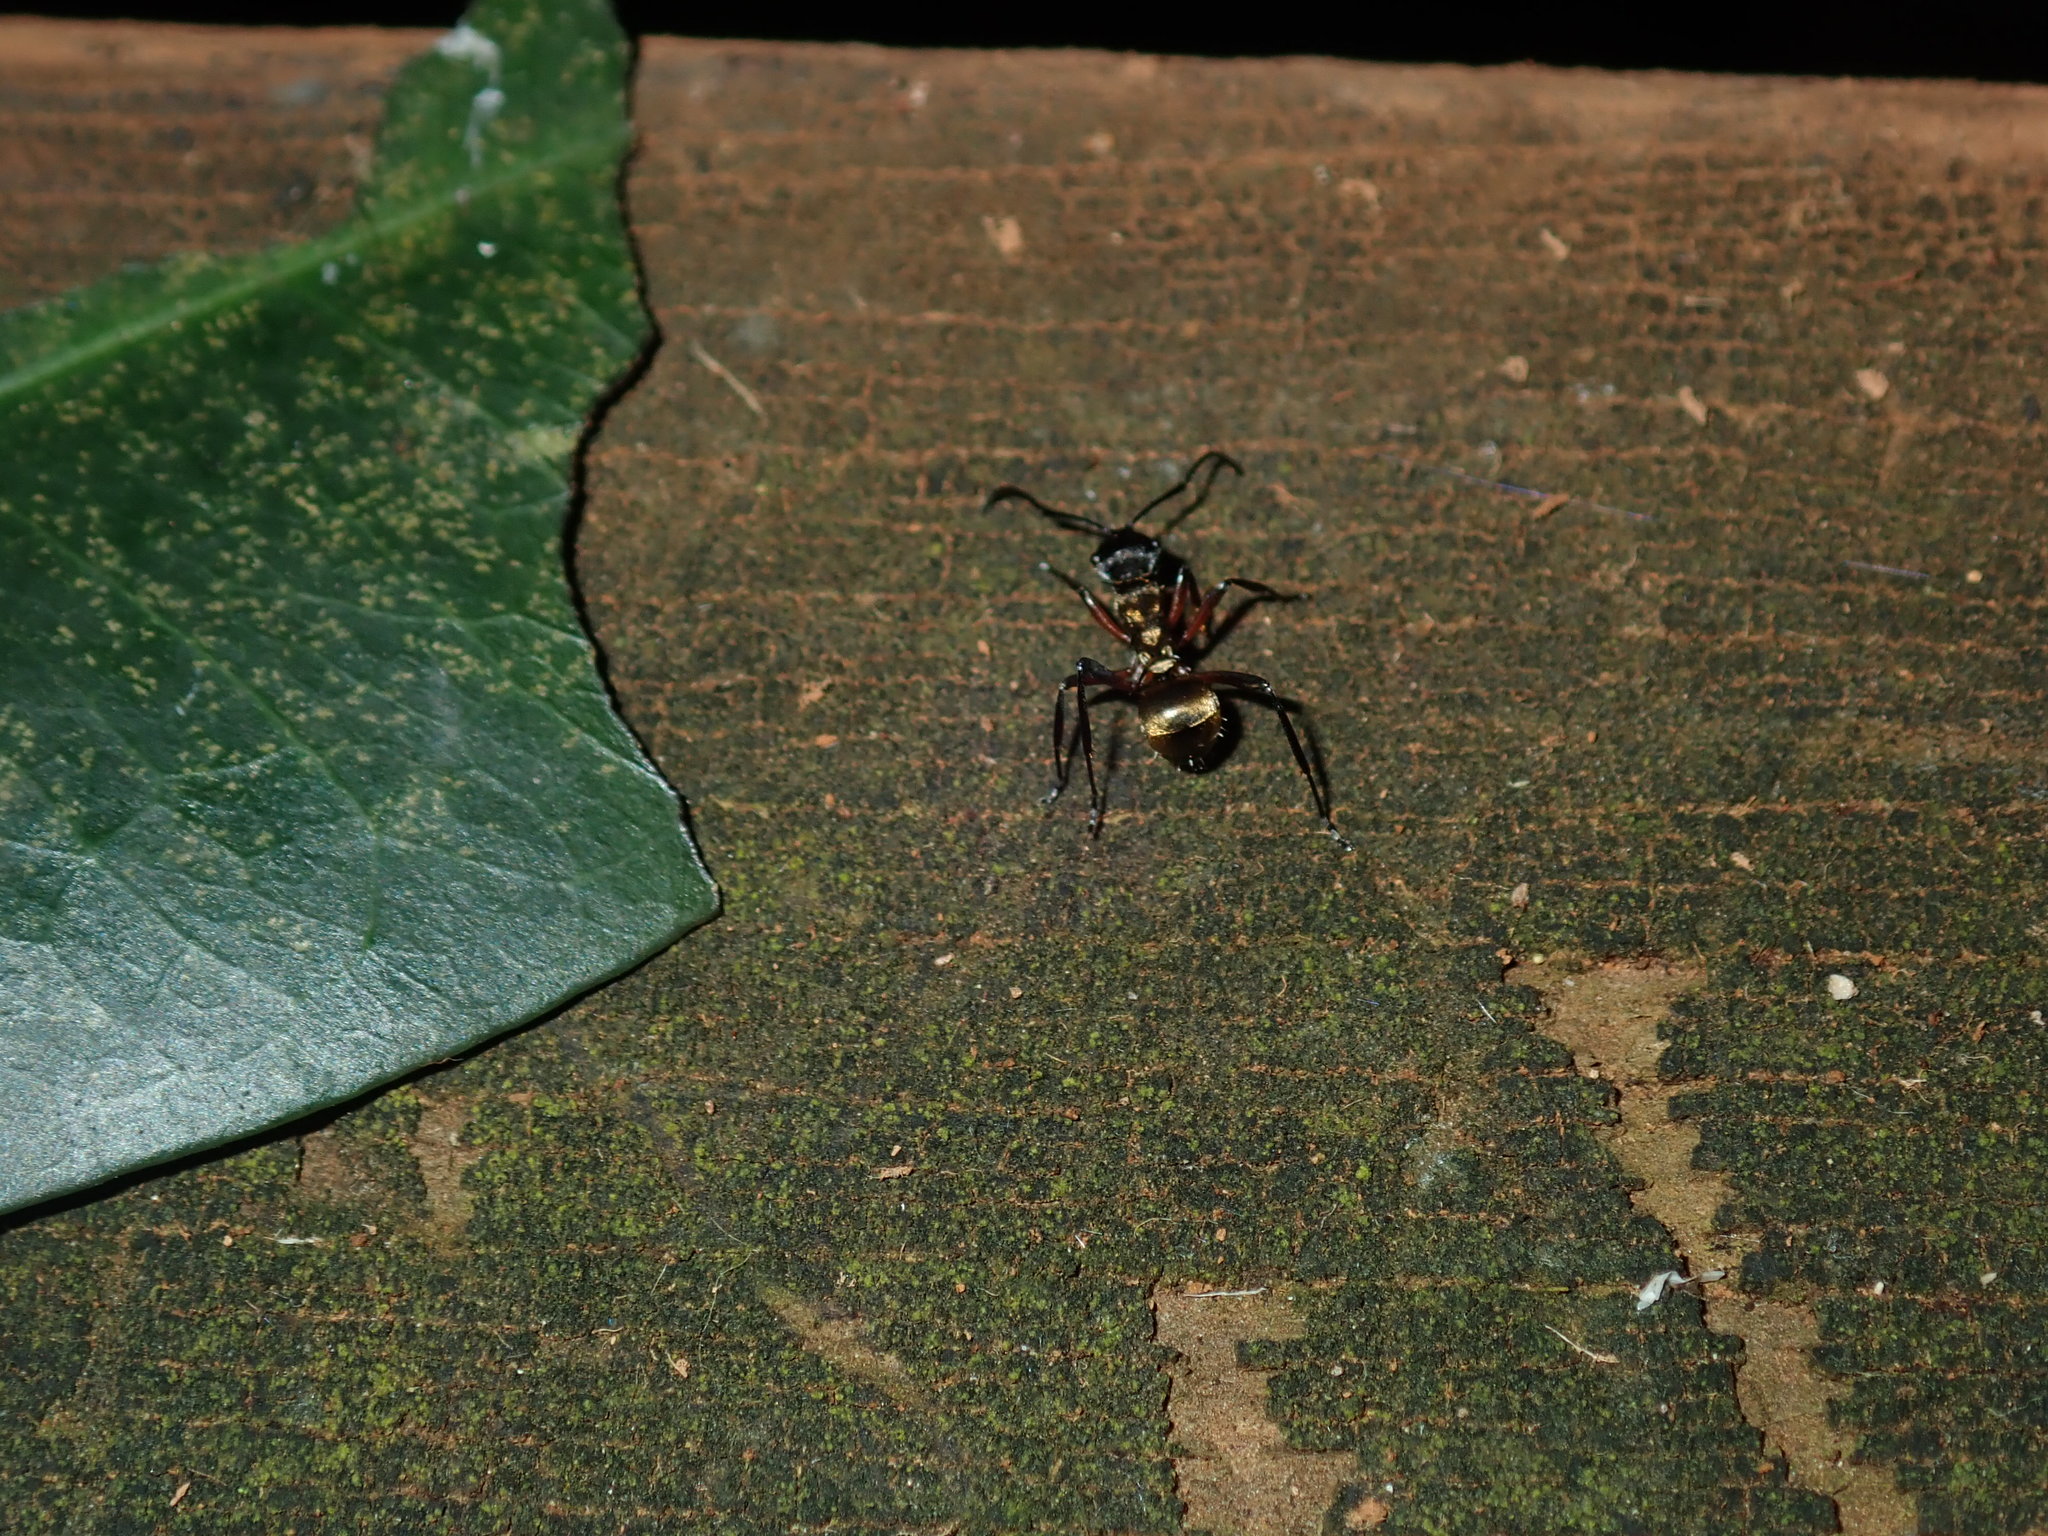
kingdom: Animalia
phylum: Arthropoda
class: Insecta
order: Hymenoptera
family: Formicidae
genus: Polyrhachis
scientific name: Polyrhachis rufifemur
